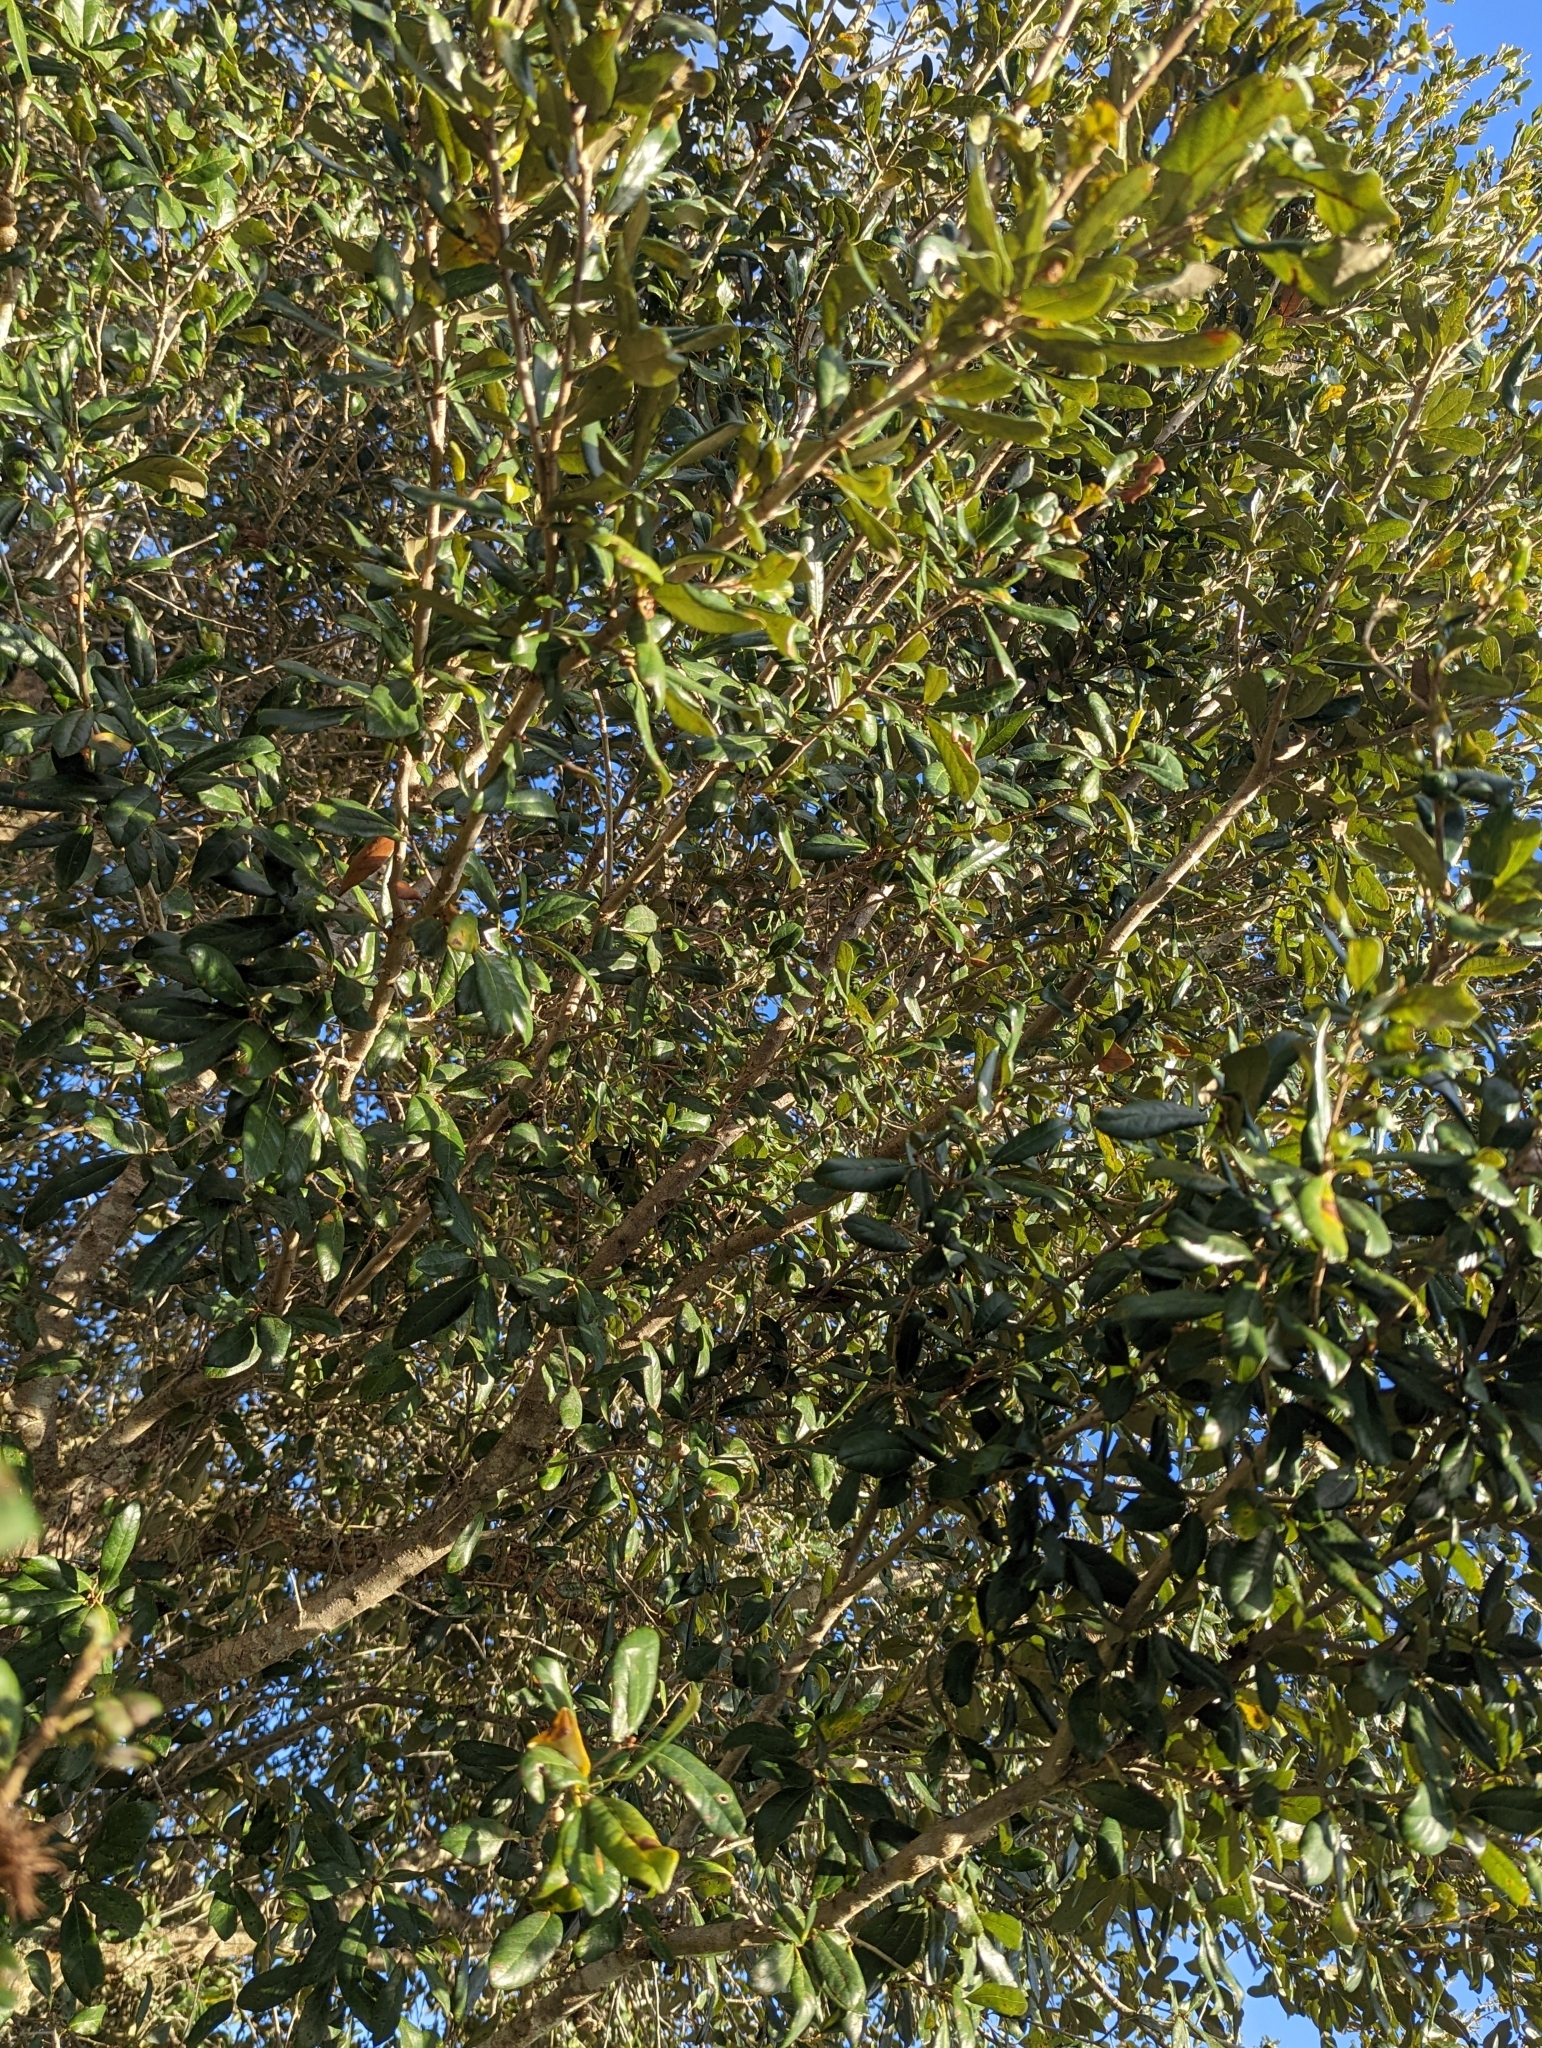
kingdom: Plantae
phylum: Tracheophyta
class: Magnoliopsida
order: Fagales
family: Fagaceae
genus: Quercus
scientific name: Quercus virginiana
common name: Southern live oak
